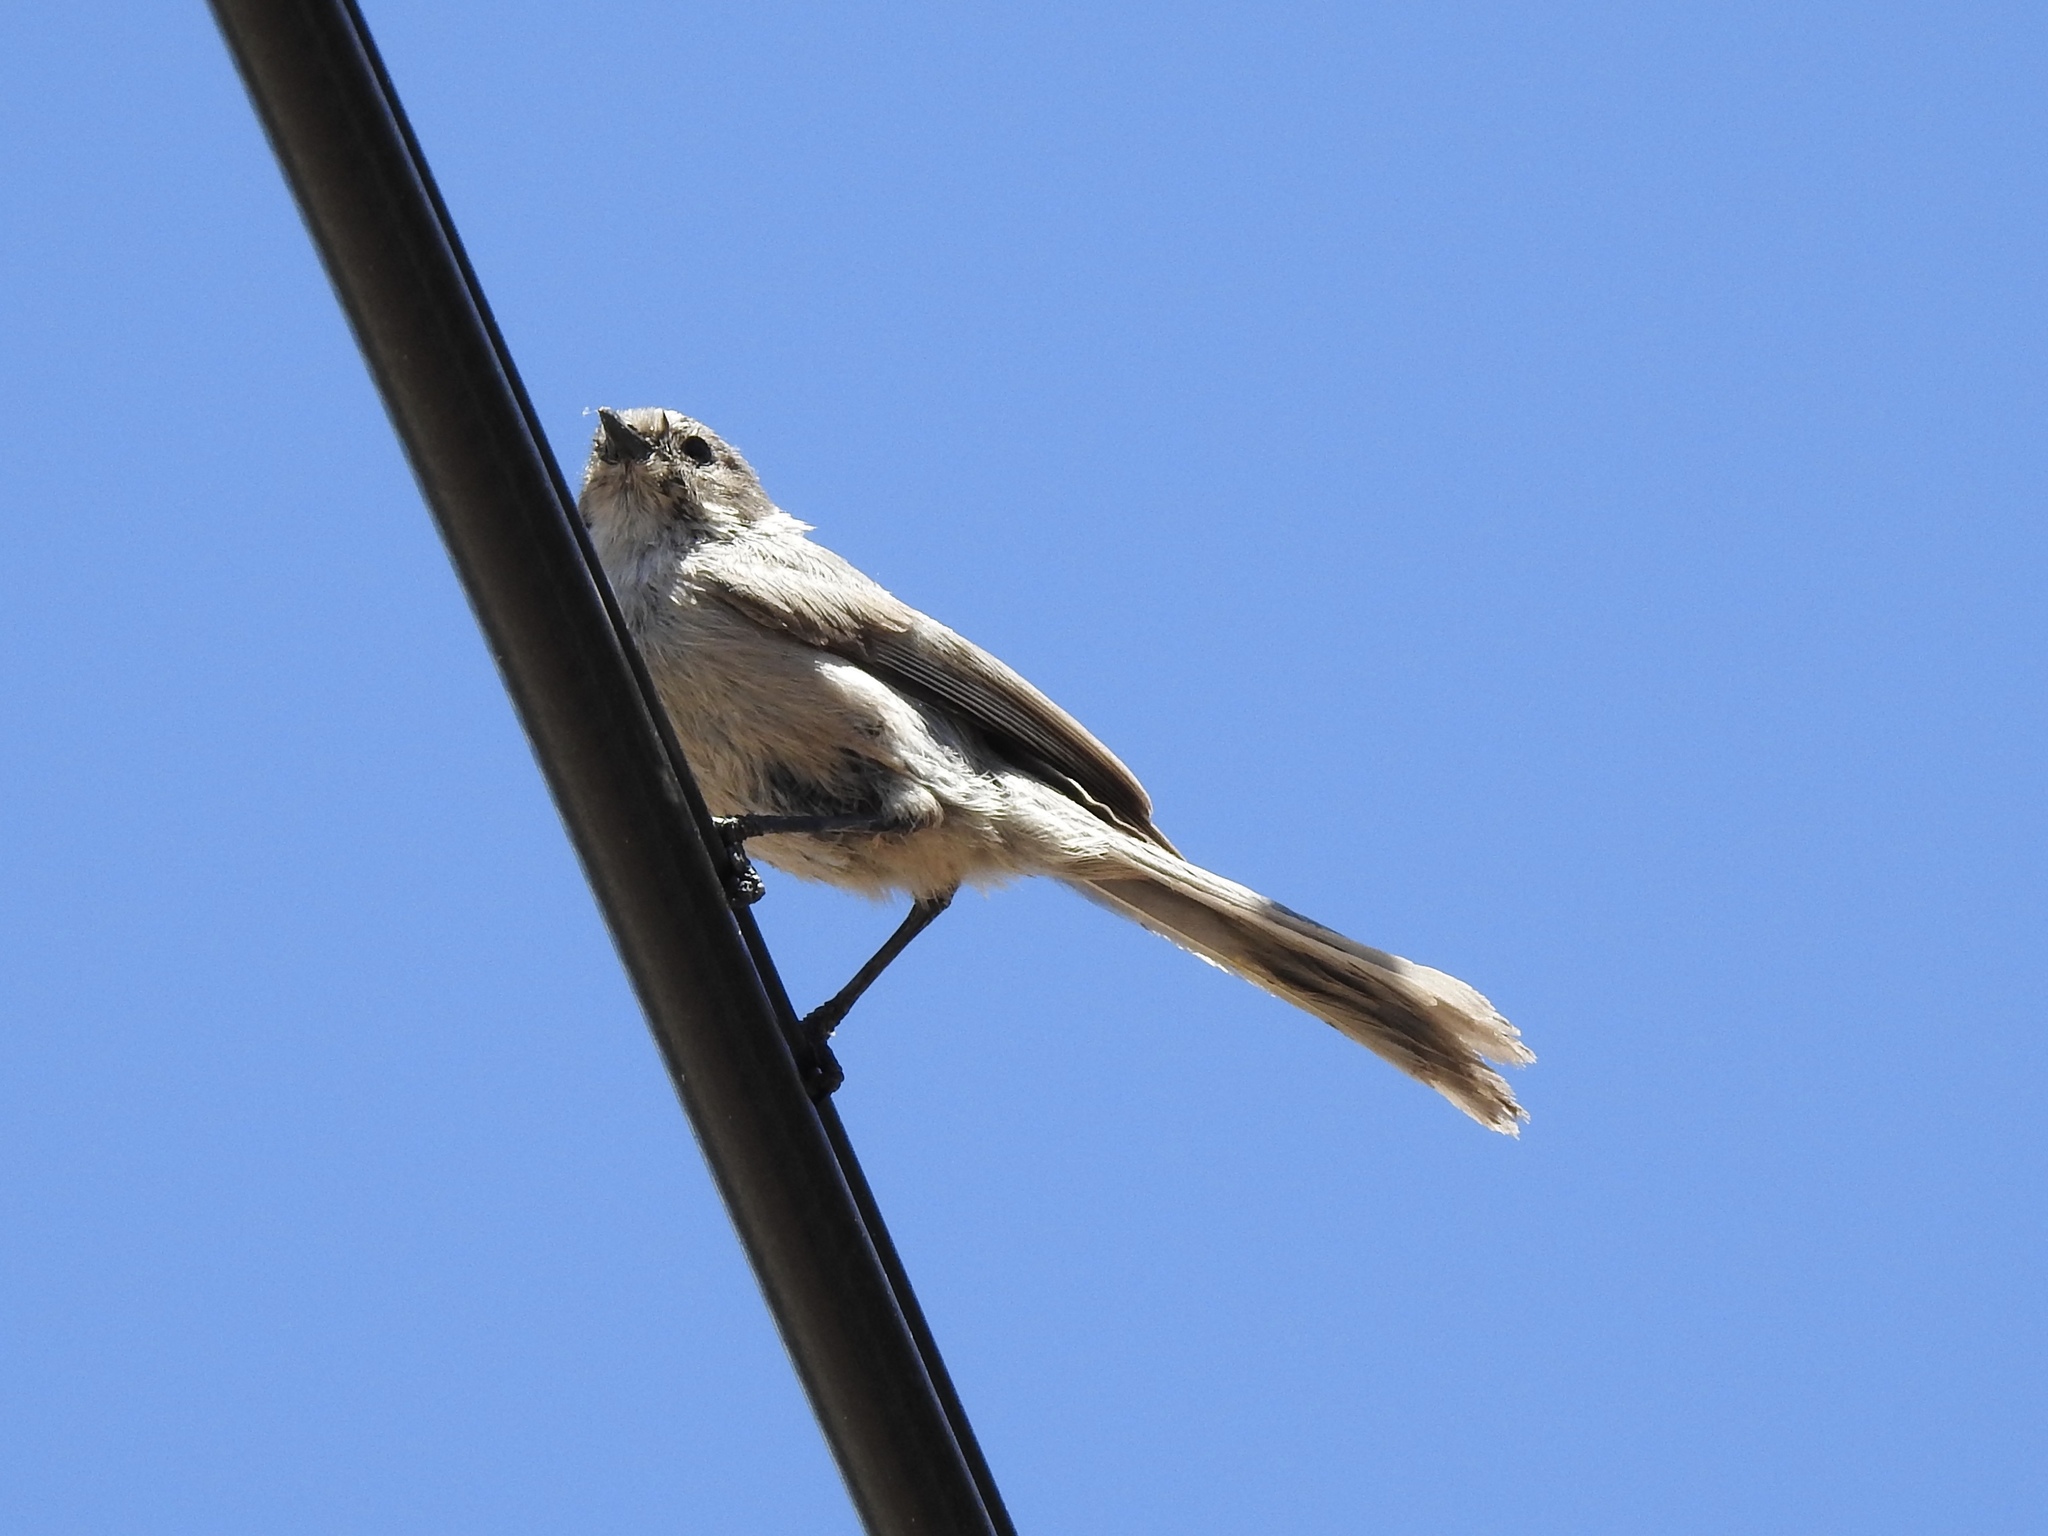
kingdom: Animalia
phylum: Chordata
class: Aves
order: Passeriformes
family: Aegithalidae
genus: Psaltriparus
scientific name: Psaltriparus minimus
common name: American bushtit
